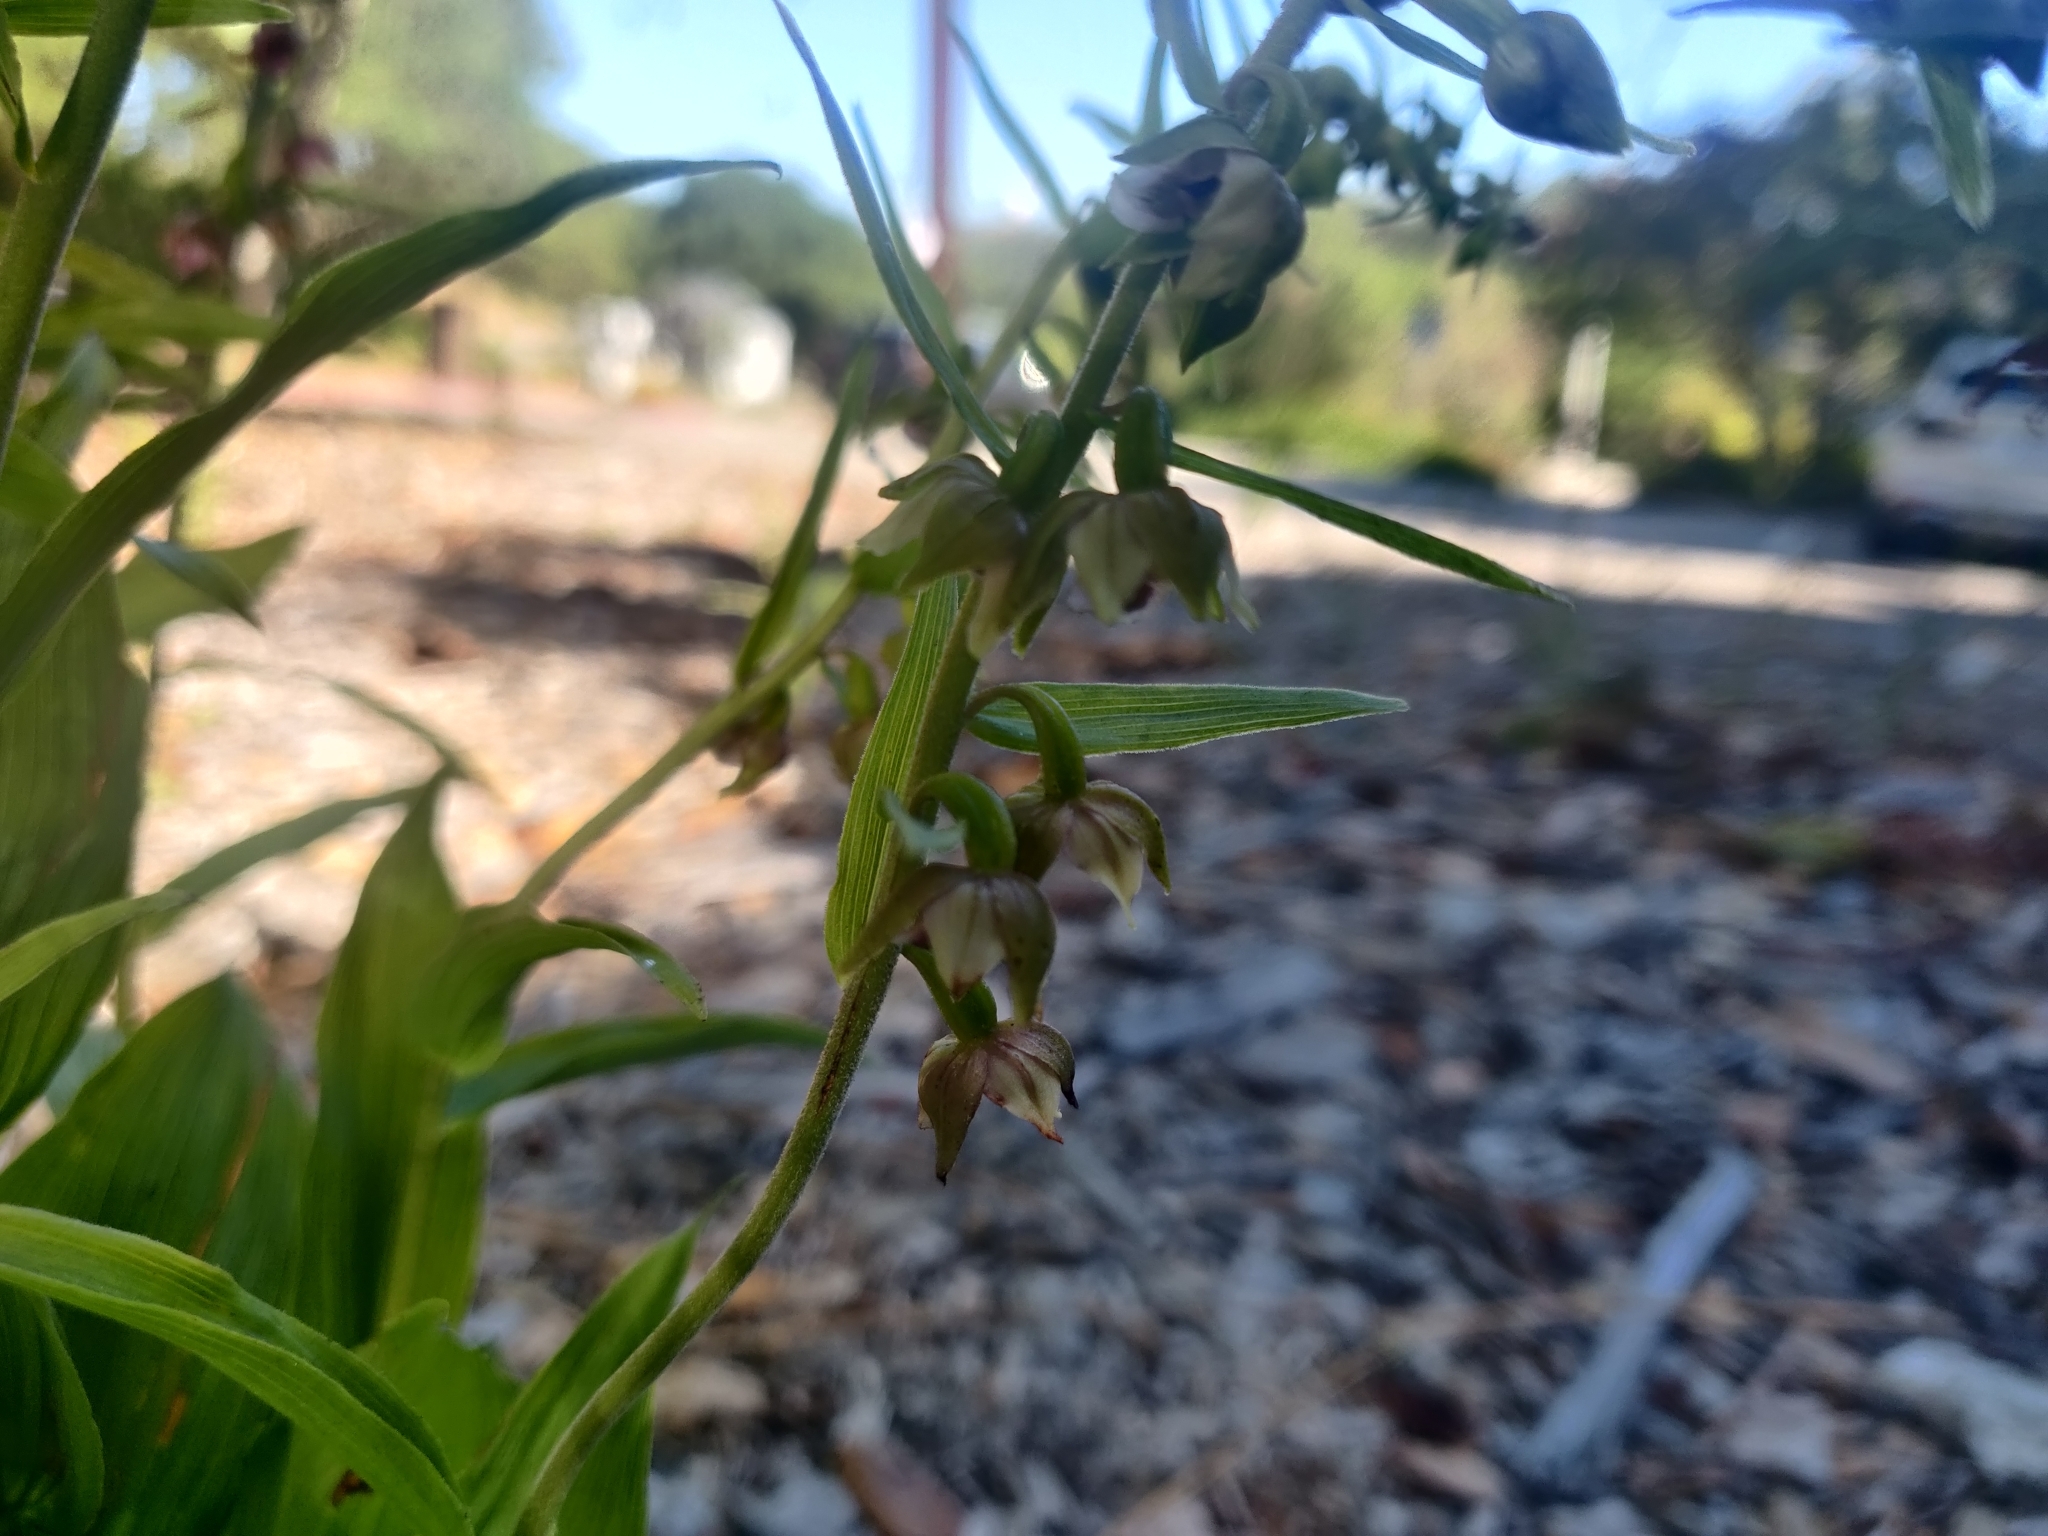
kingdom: Plantae
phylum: Tracheophyta
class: Liliopsida
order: Asparagales
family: Orchidaceae
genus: Epipactis
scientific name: Epipactis helleborine
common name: Broad-leaved helleborine
